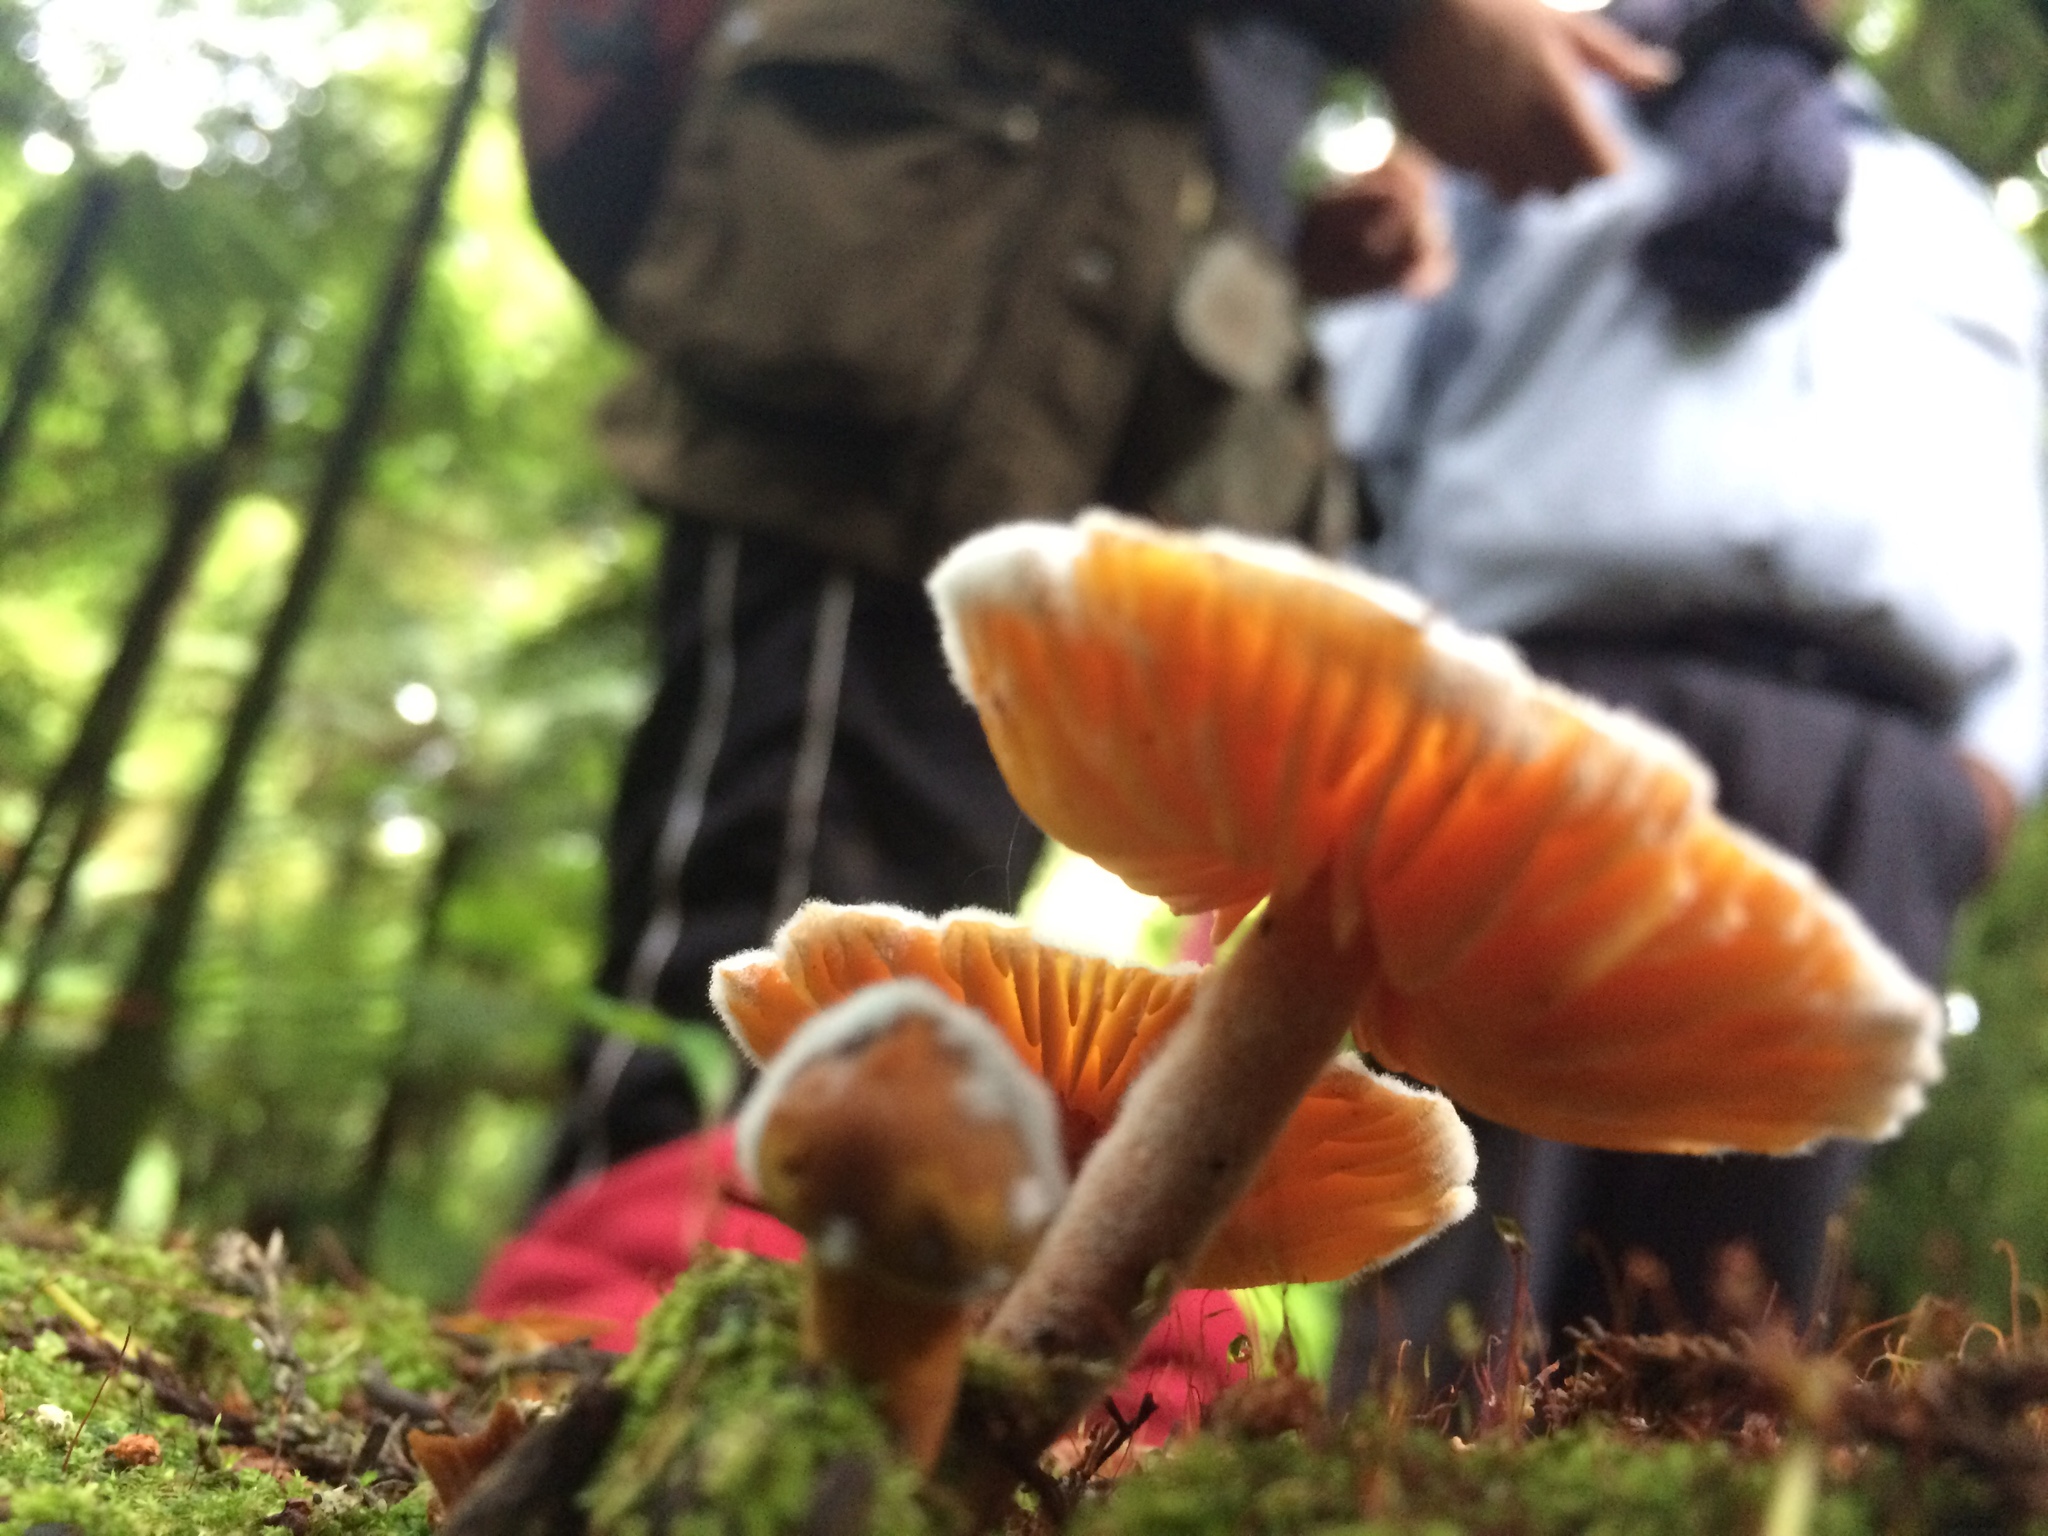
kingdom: Fungi
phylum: Basidiomycota
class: Agaricomycetes
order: Agaricales
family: Physalacriaceae
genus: Flammulina
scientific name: Flammulina velutipes
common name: Velvet shank
